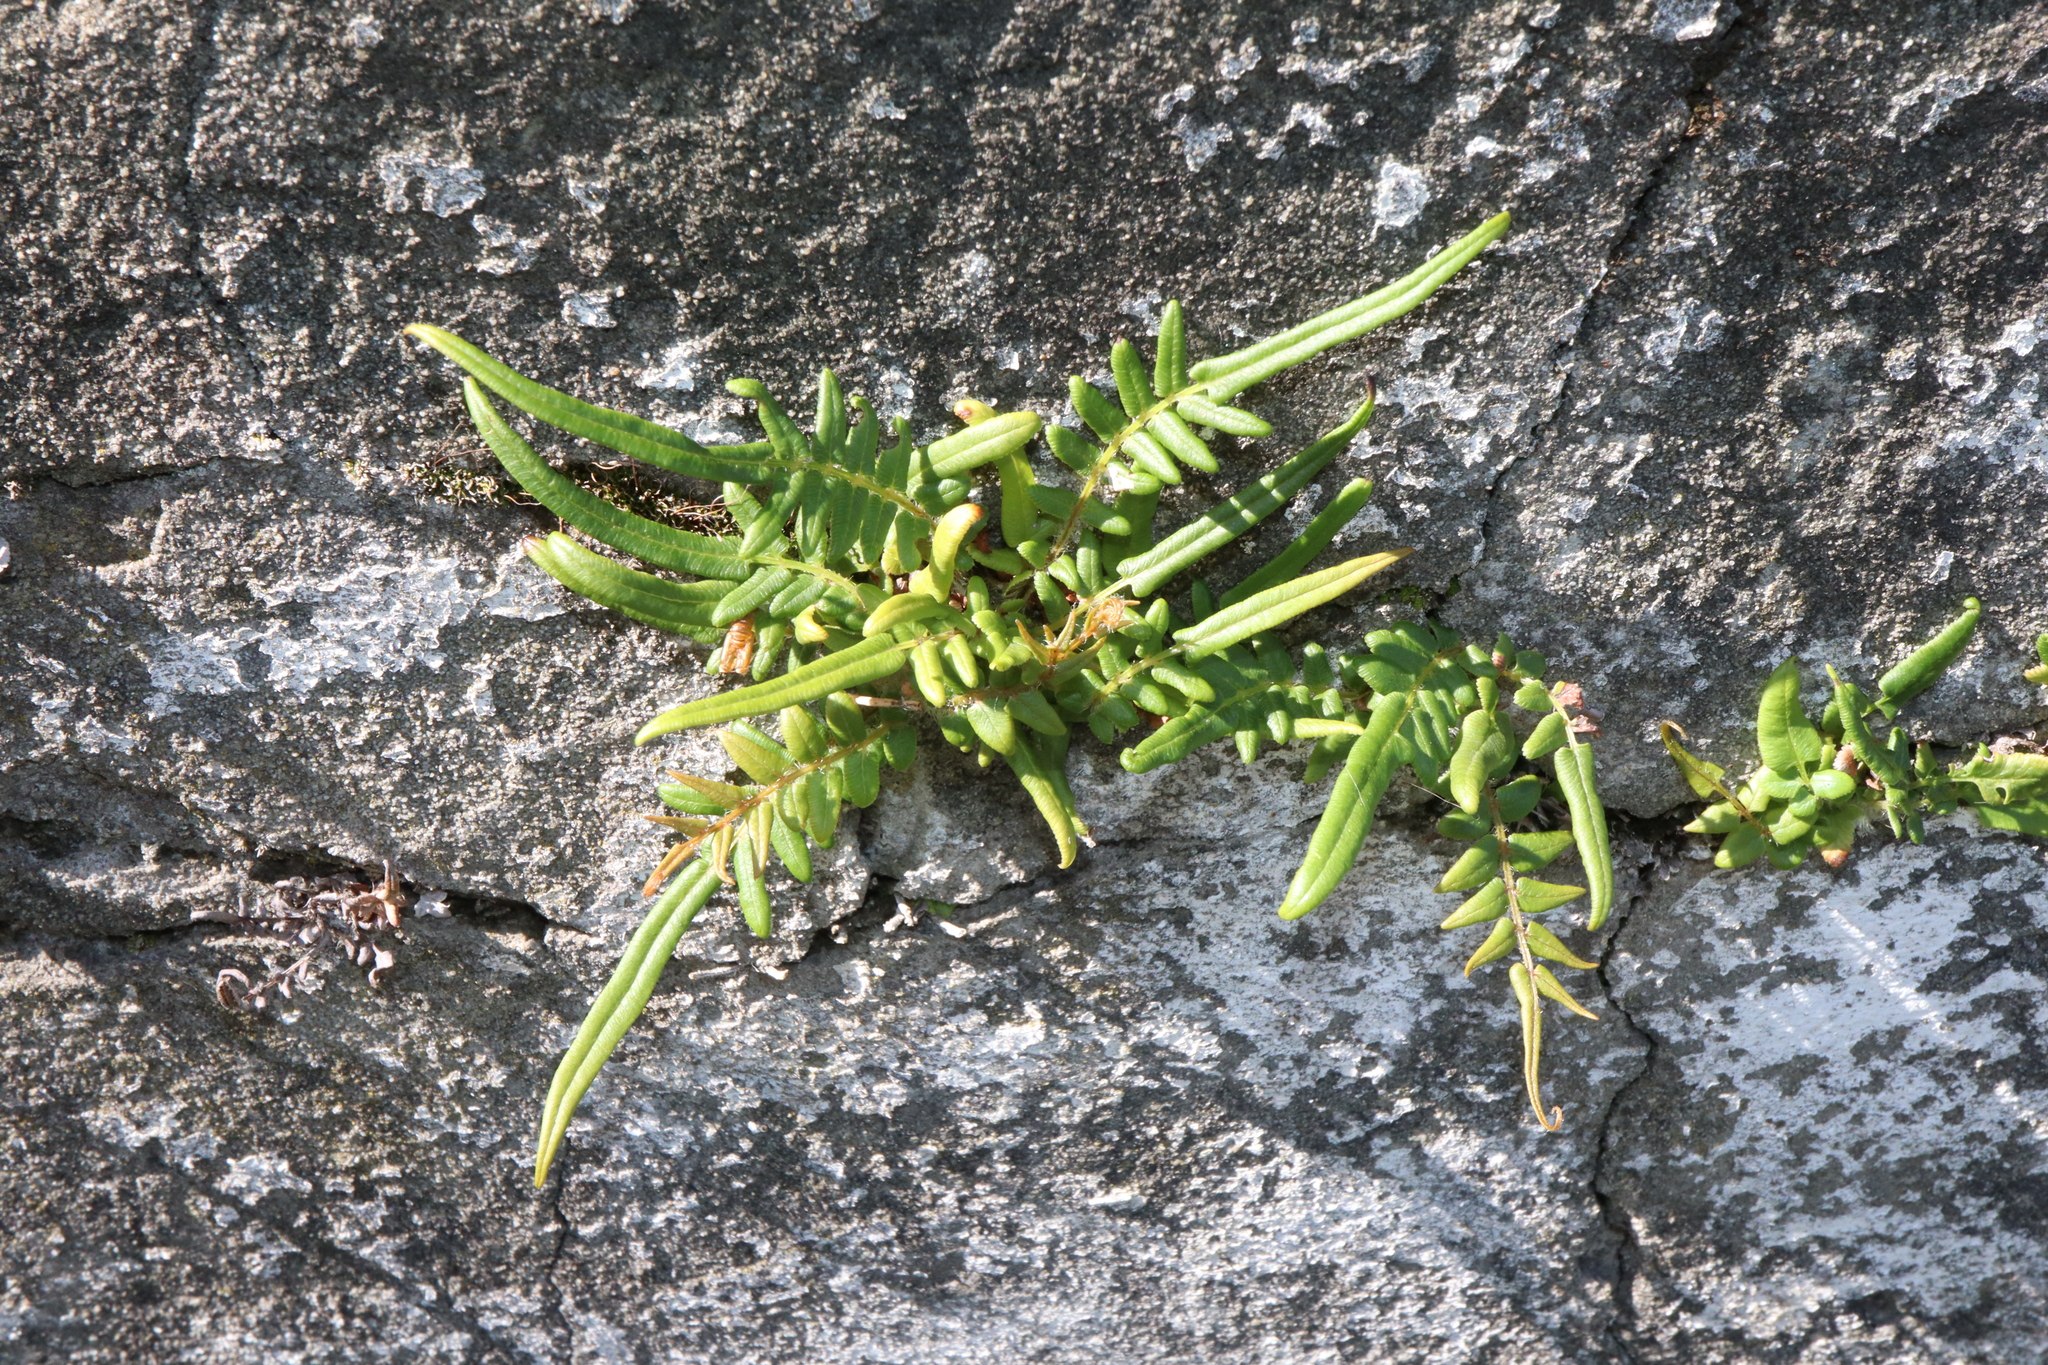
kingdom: Plantae
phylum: Tracheophyta
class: Polypodiopsida
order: Polypodiales
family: Pteridaceae
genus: Pteris
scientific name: Pteris vittata
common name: Ladder brake
